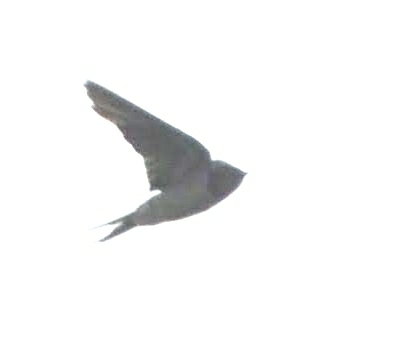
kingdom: Animalia
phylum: Chordata
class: Aves
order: Passeriformes
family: Hirundinidae
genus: Hirundo
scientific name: Hirundo rustica
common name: Barn swallow
